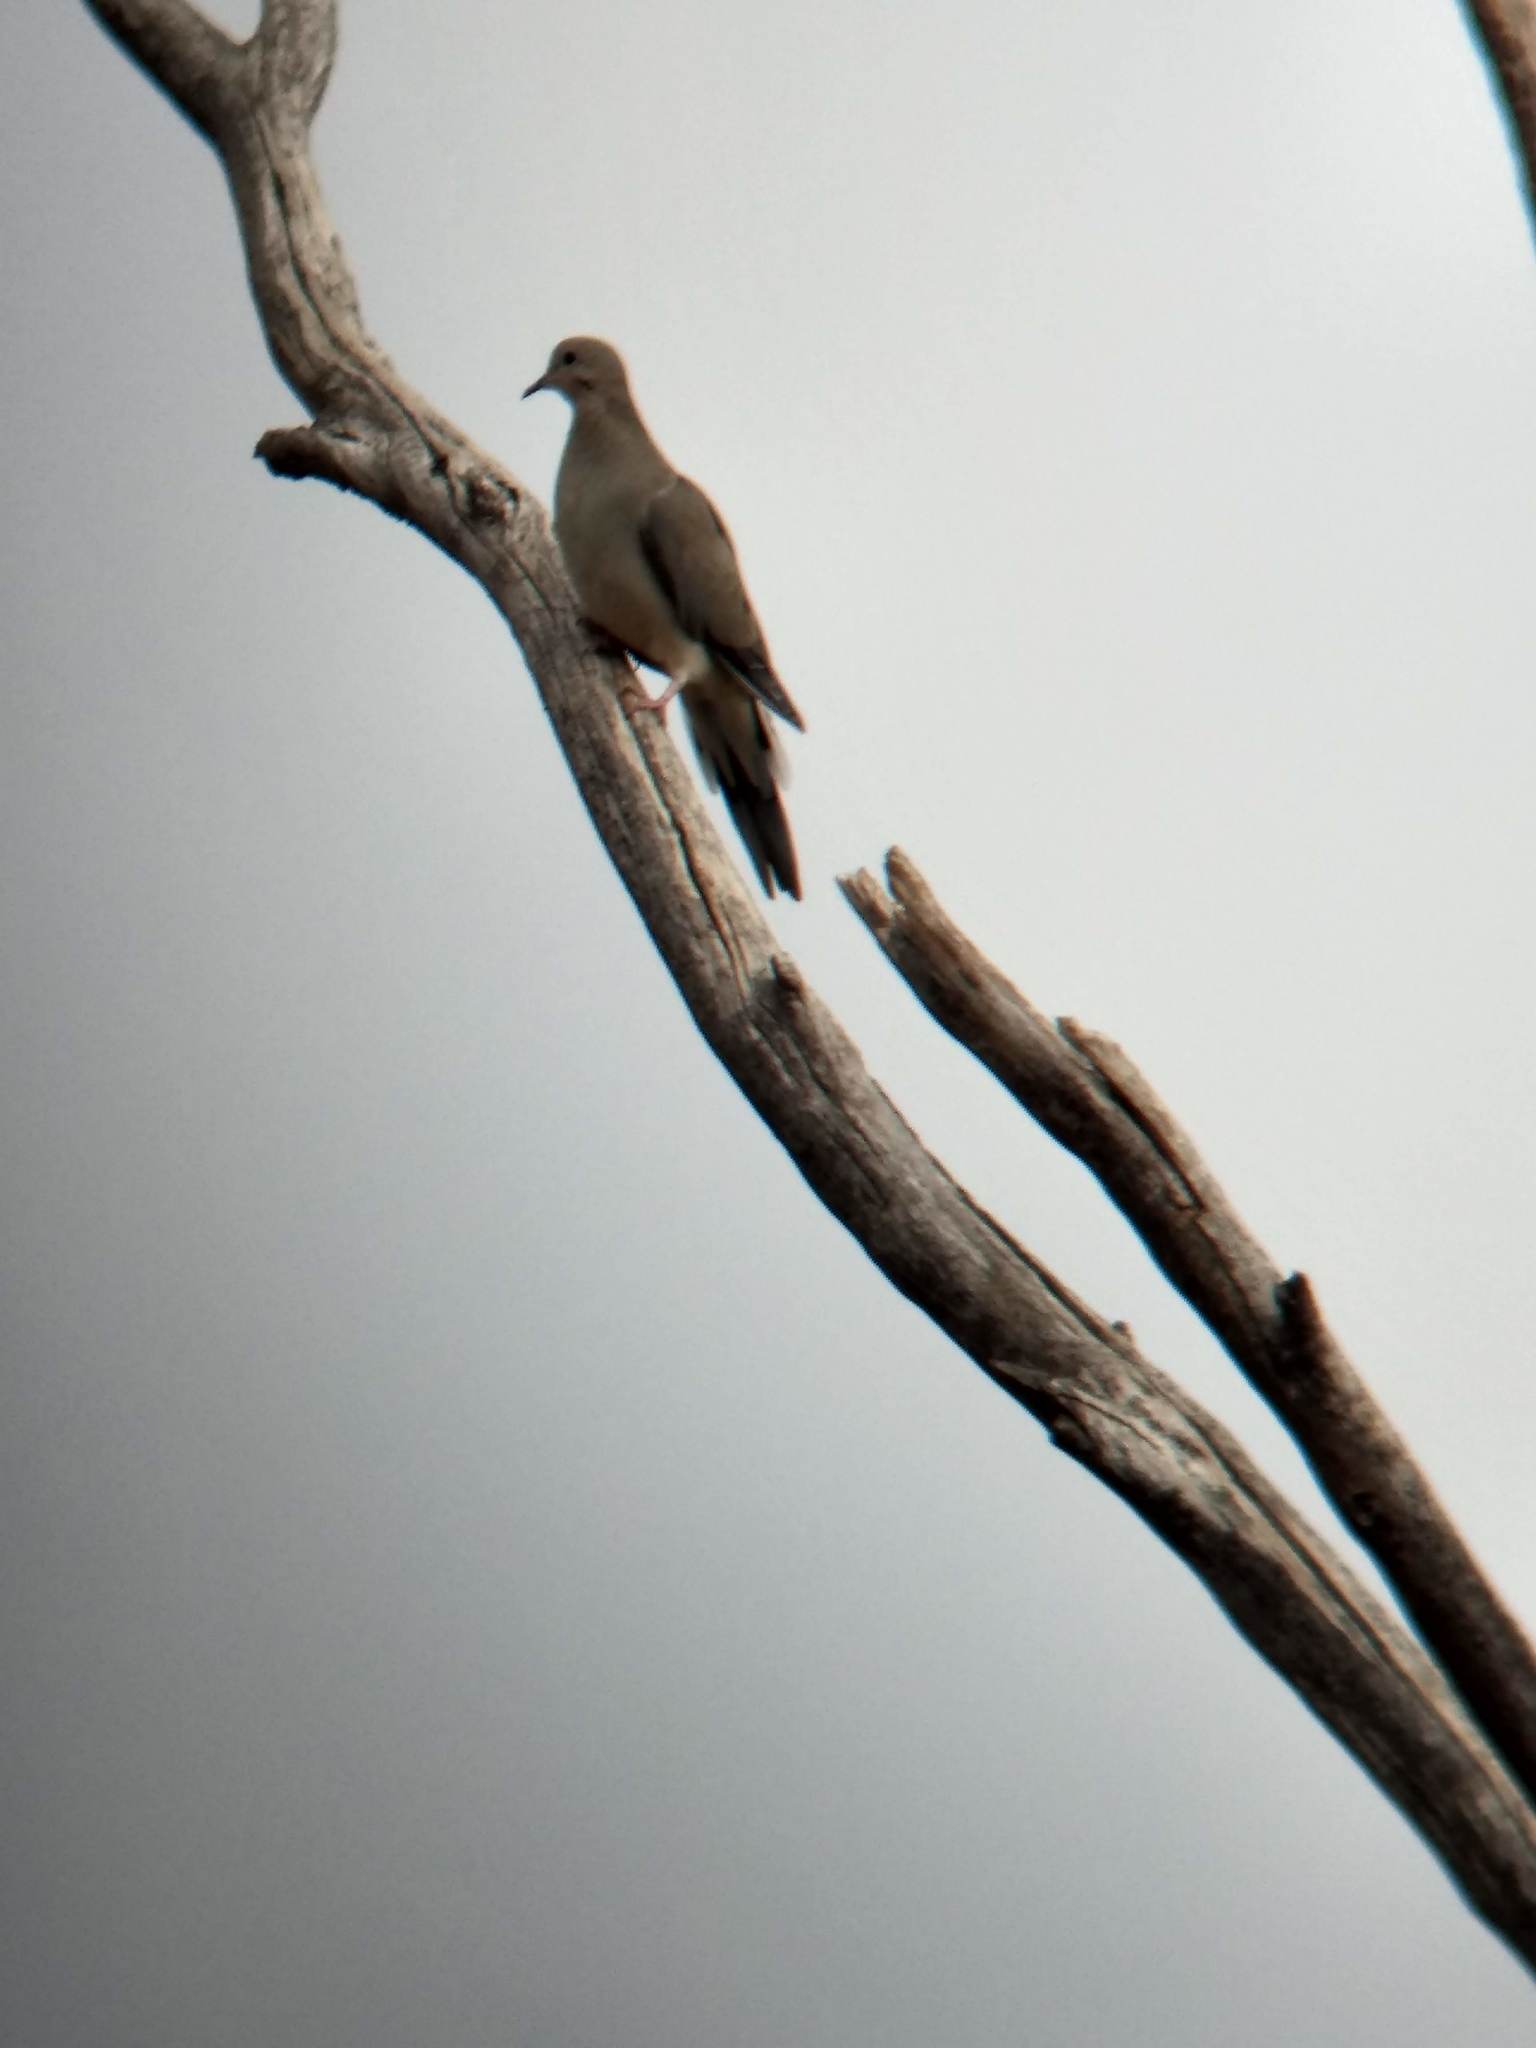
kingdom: Animalia
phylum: Chordata
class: Aves
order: Columbiformes
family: Columbidae
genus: Zenaida
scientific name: Zenaida macroura
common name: Mourning dove
